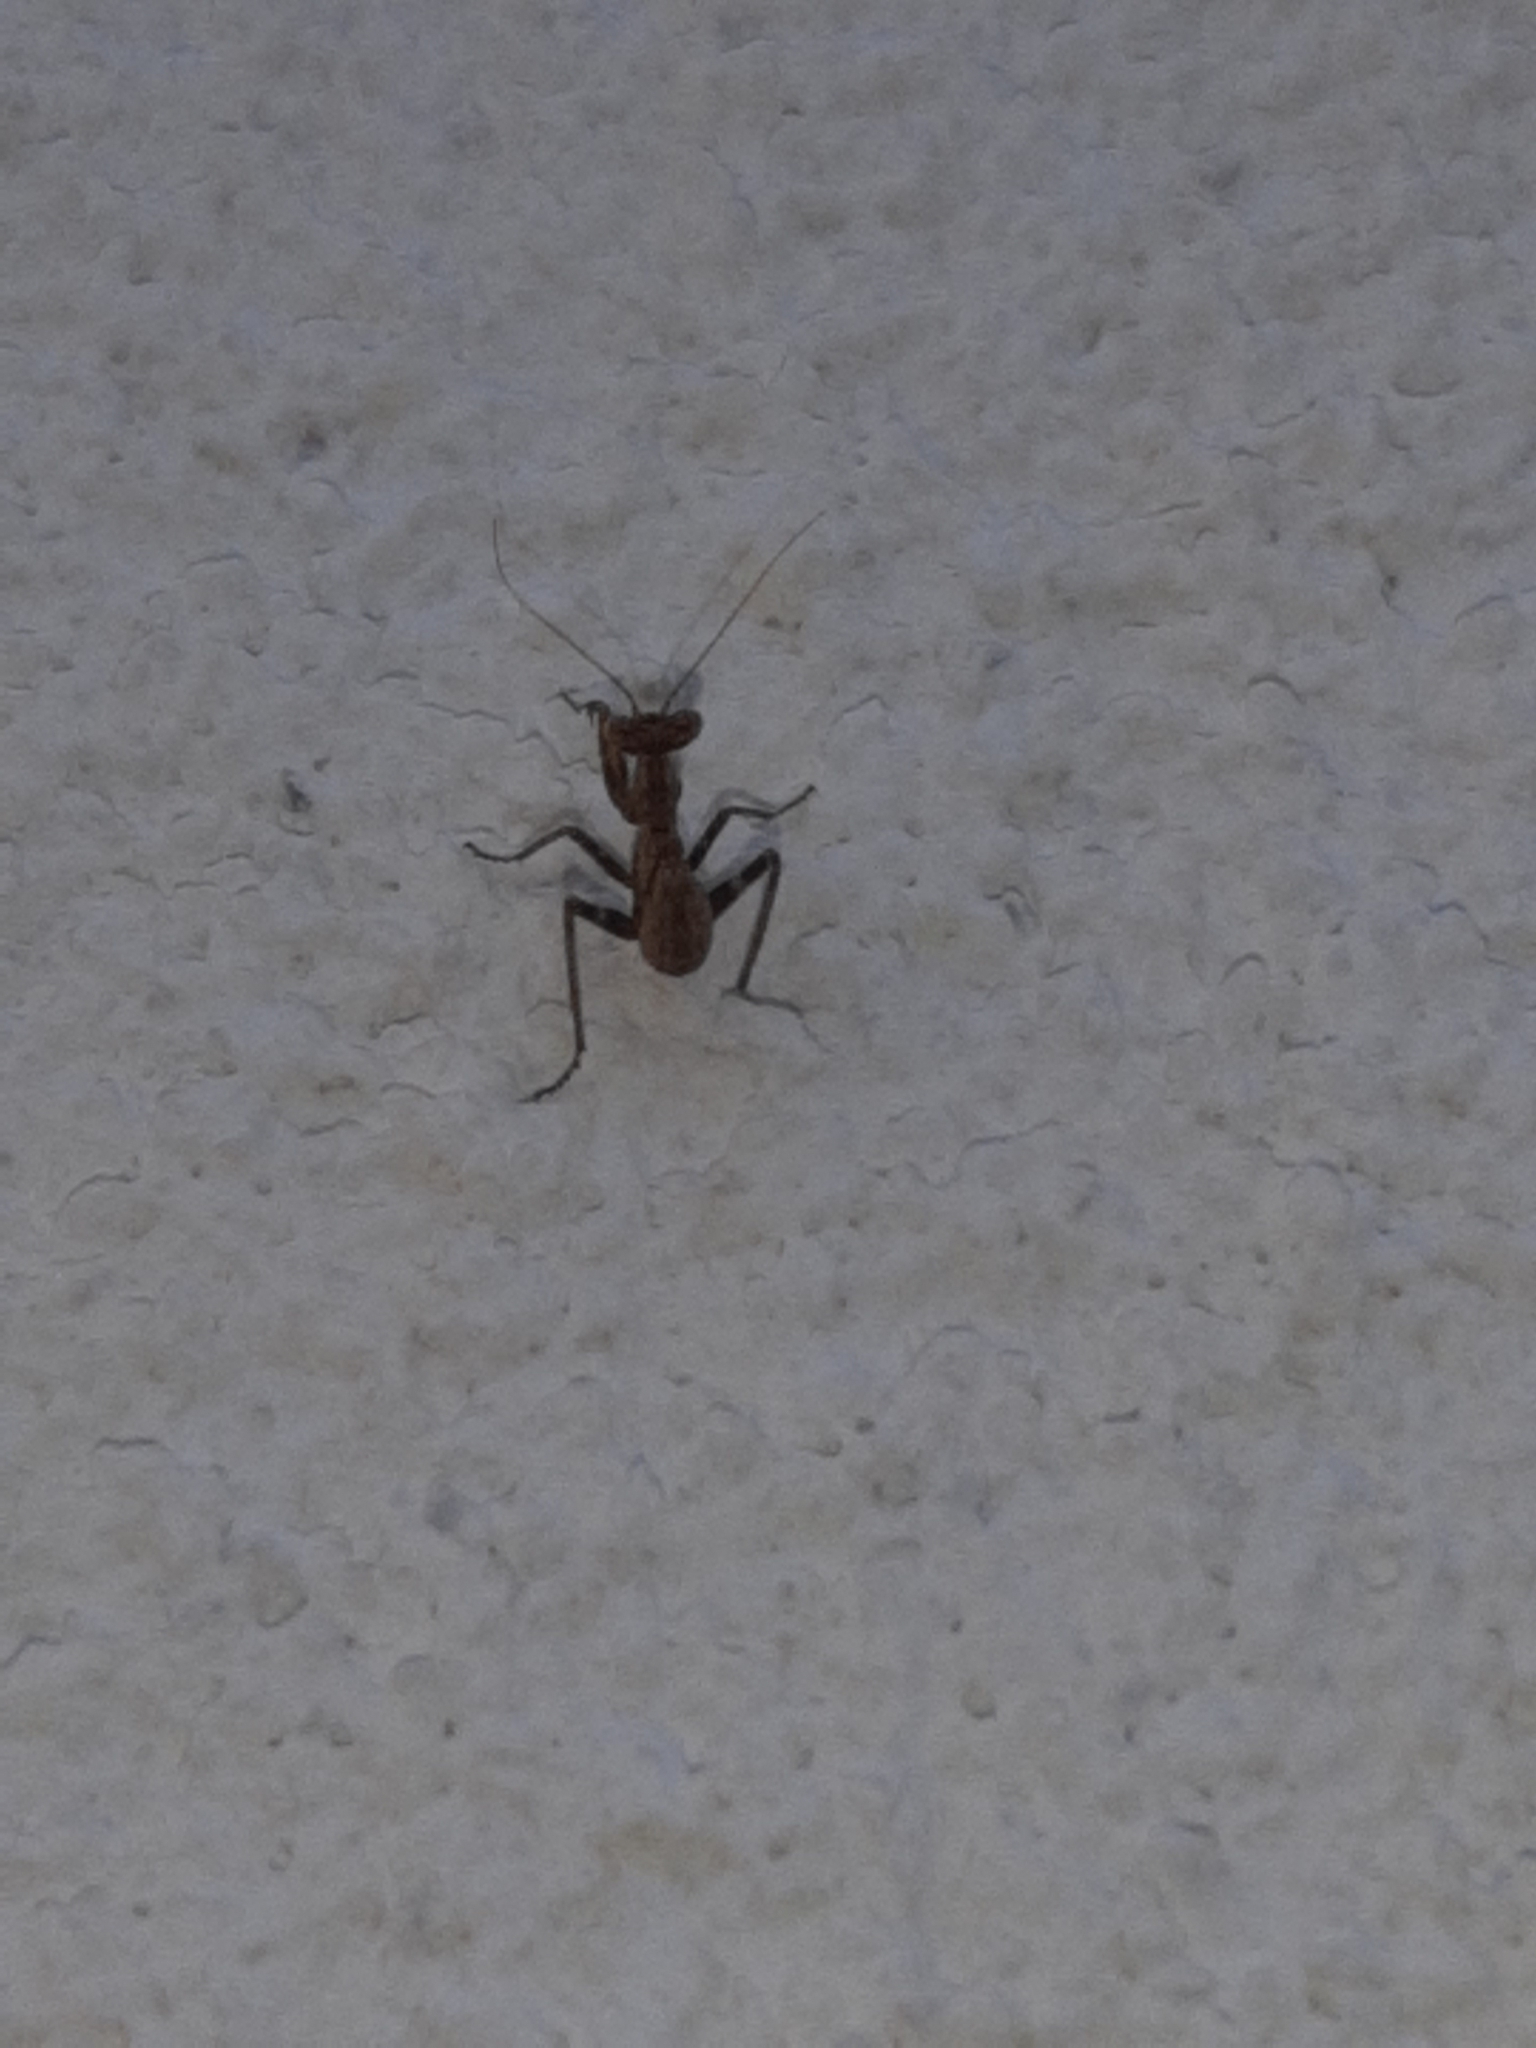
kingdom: Animalia
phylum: Arthropoda
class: Insecta
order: Mantodea
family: Amelidae
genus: Ameles
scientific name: Ameles spallanzania
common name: European dwarf mantis
